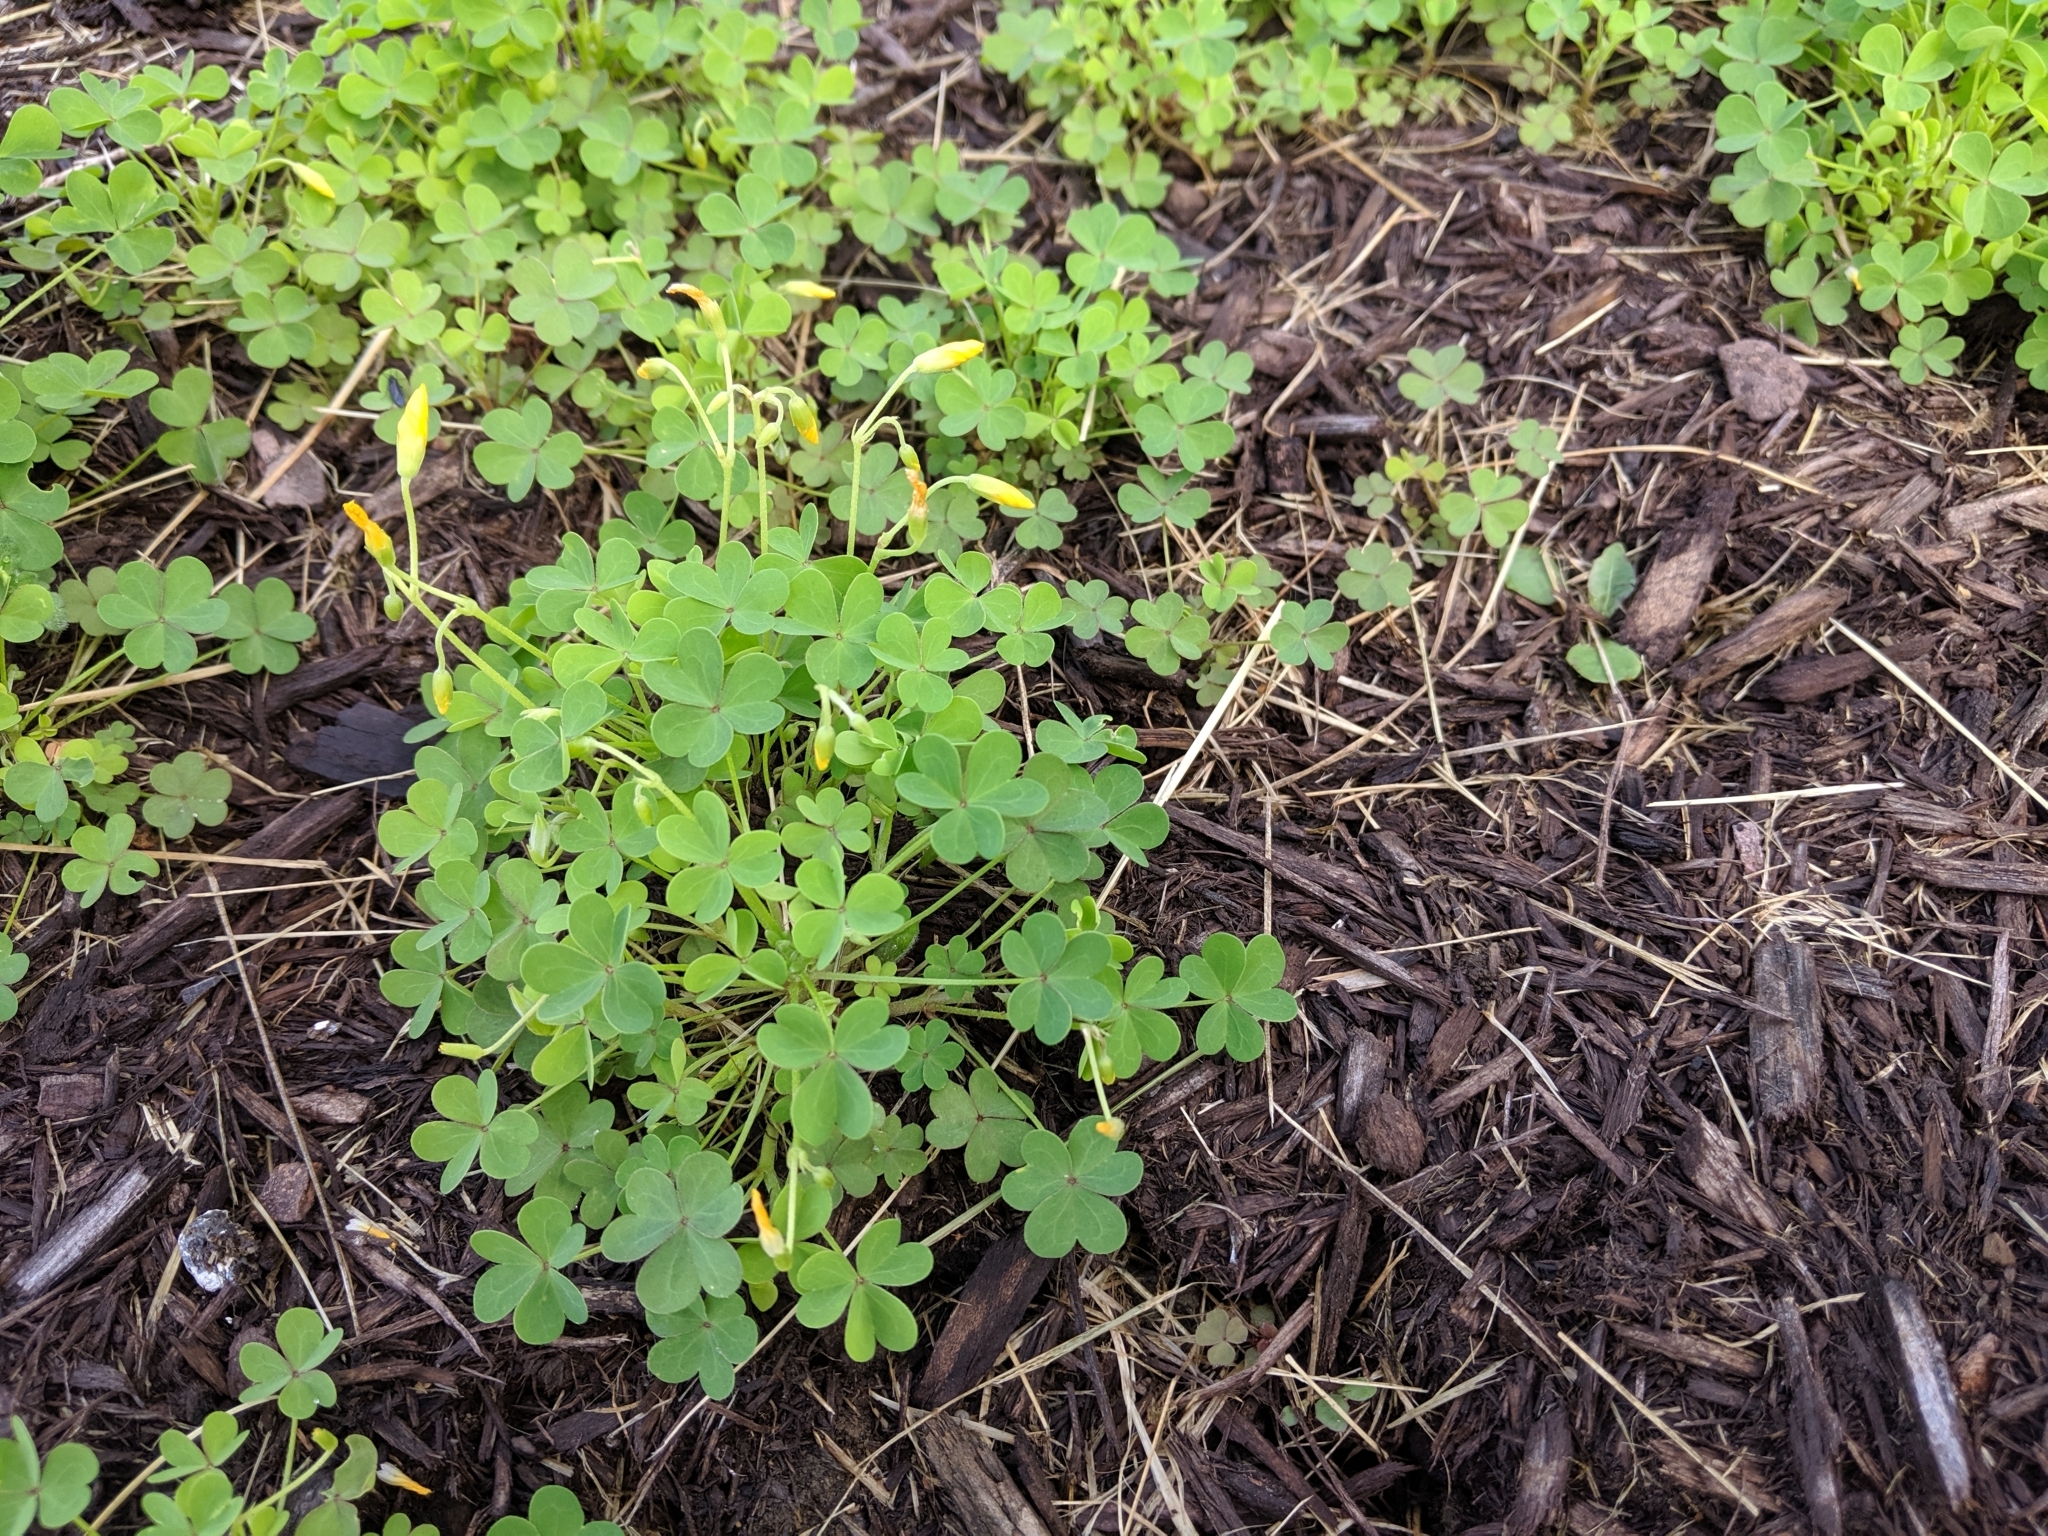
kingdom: Plantae
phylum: Tracheophyta
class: Magnoliopsida
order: Oxalidales
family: Oxalidaceae
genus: Oxalis
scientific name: Oxalis corniculata
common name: Procumbent yellow-sorrel
